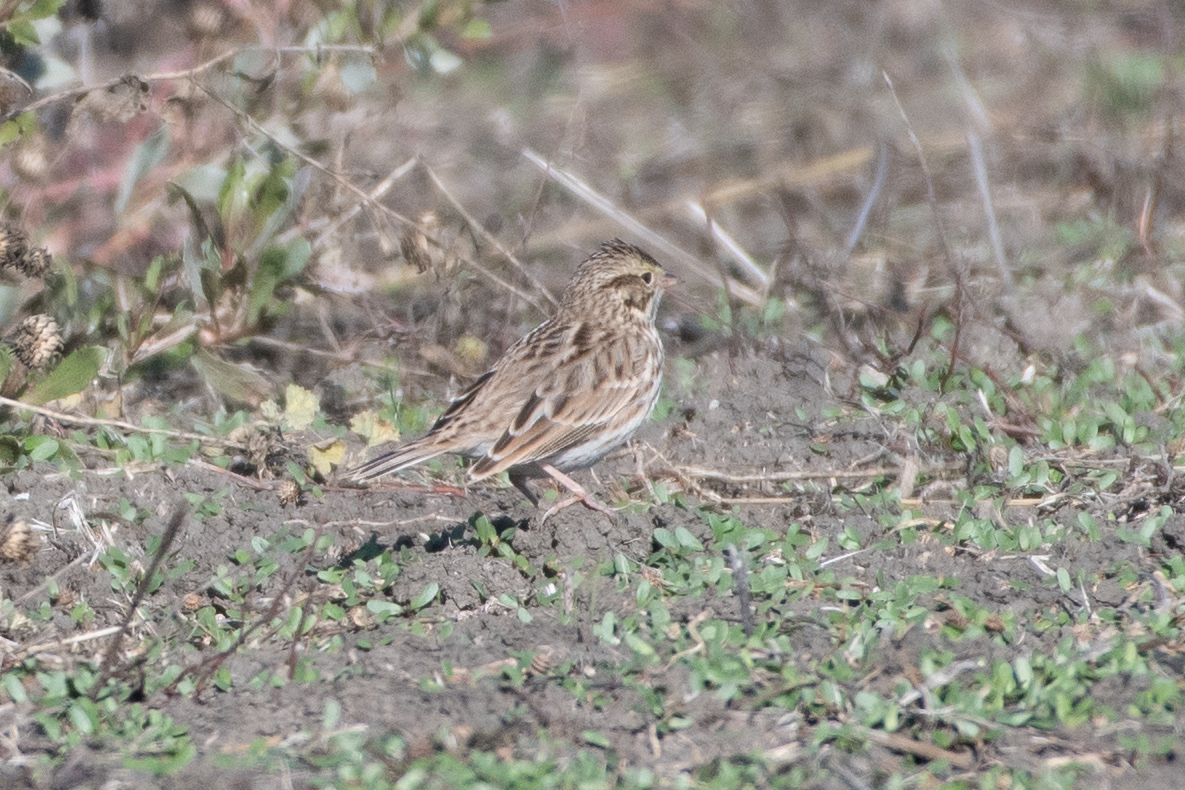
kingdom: Animalia
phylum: Chordata
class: Aves
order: Passeriformes
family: Passerellidae
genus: Passerculus
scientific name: Passerculus sandwichensis
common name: Savannah sparrow
